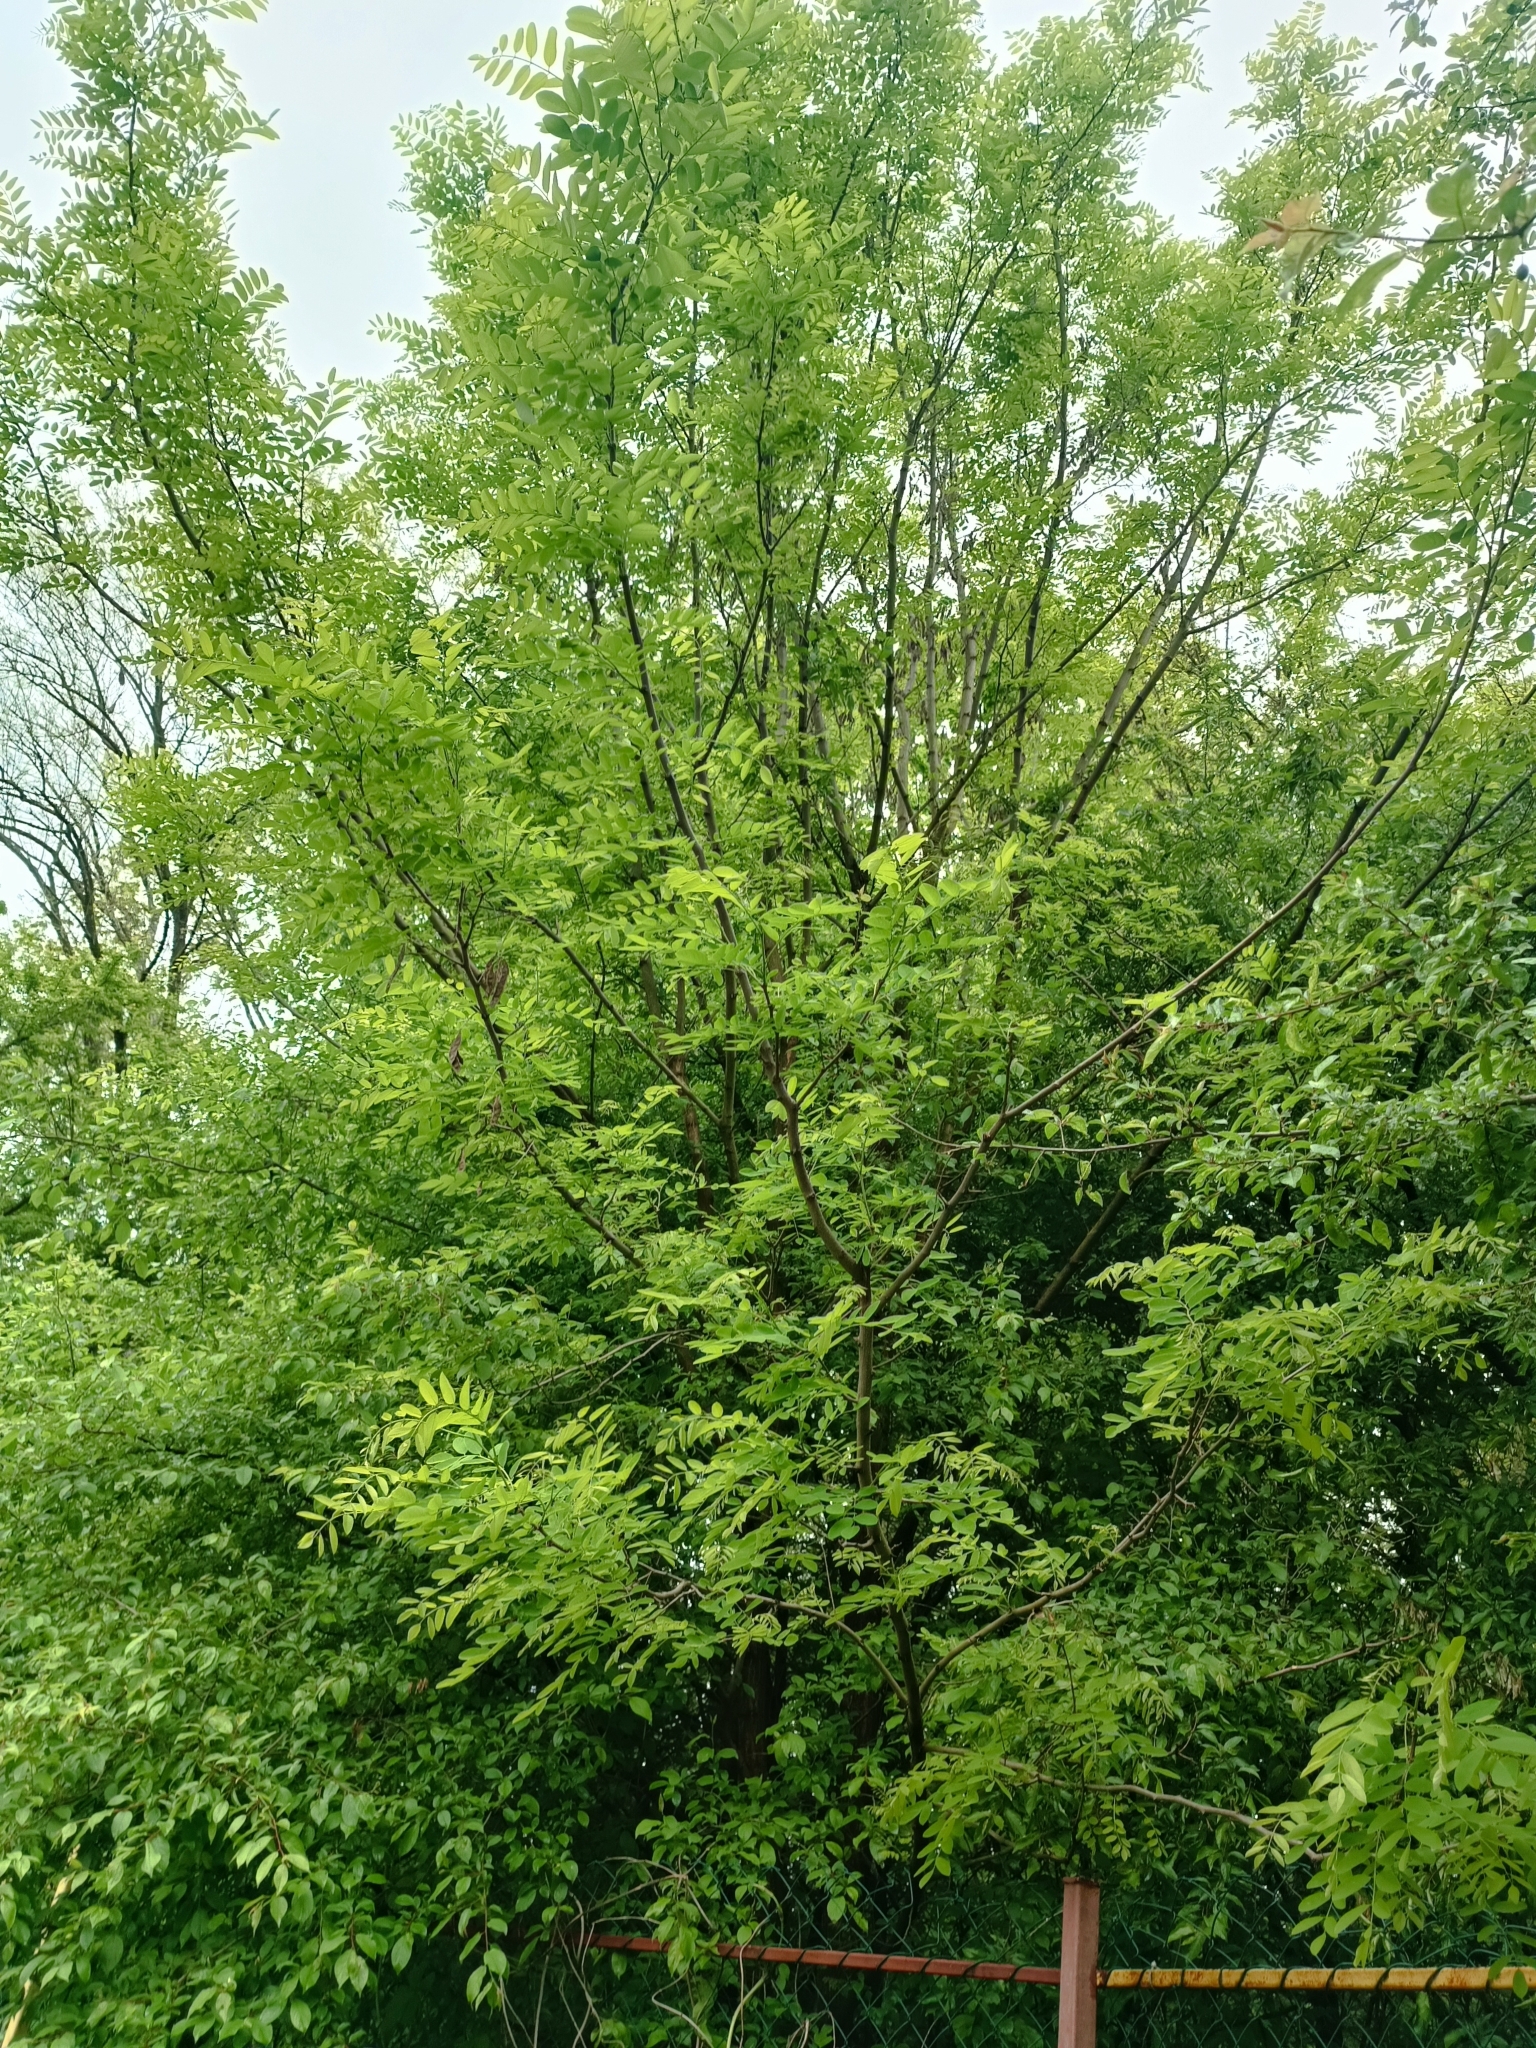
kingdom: Plantae
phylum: Tracheophyta
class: Magnoliopsida
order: Fabales
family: Fabaceae
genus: Robinia
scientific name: Robinia pseudoacacia
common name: Black locust
